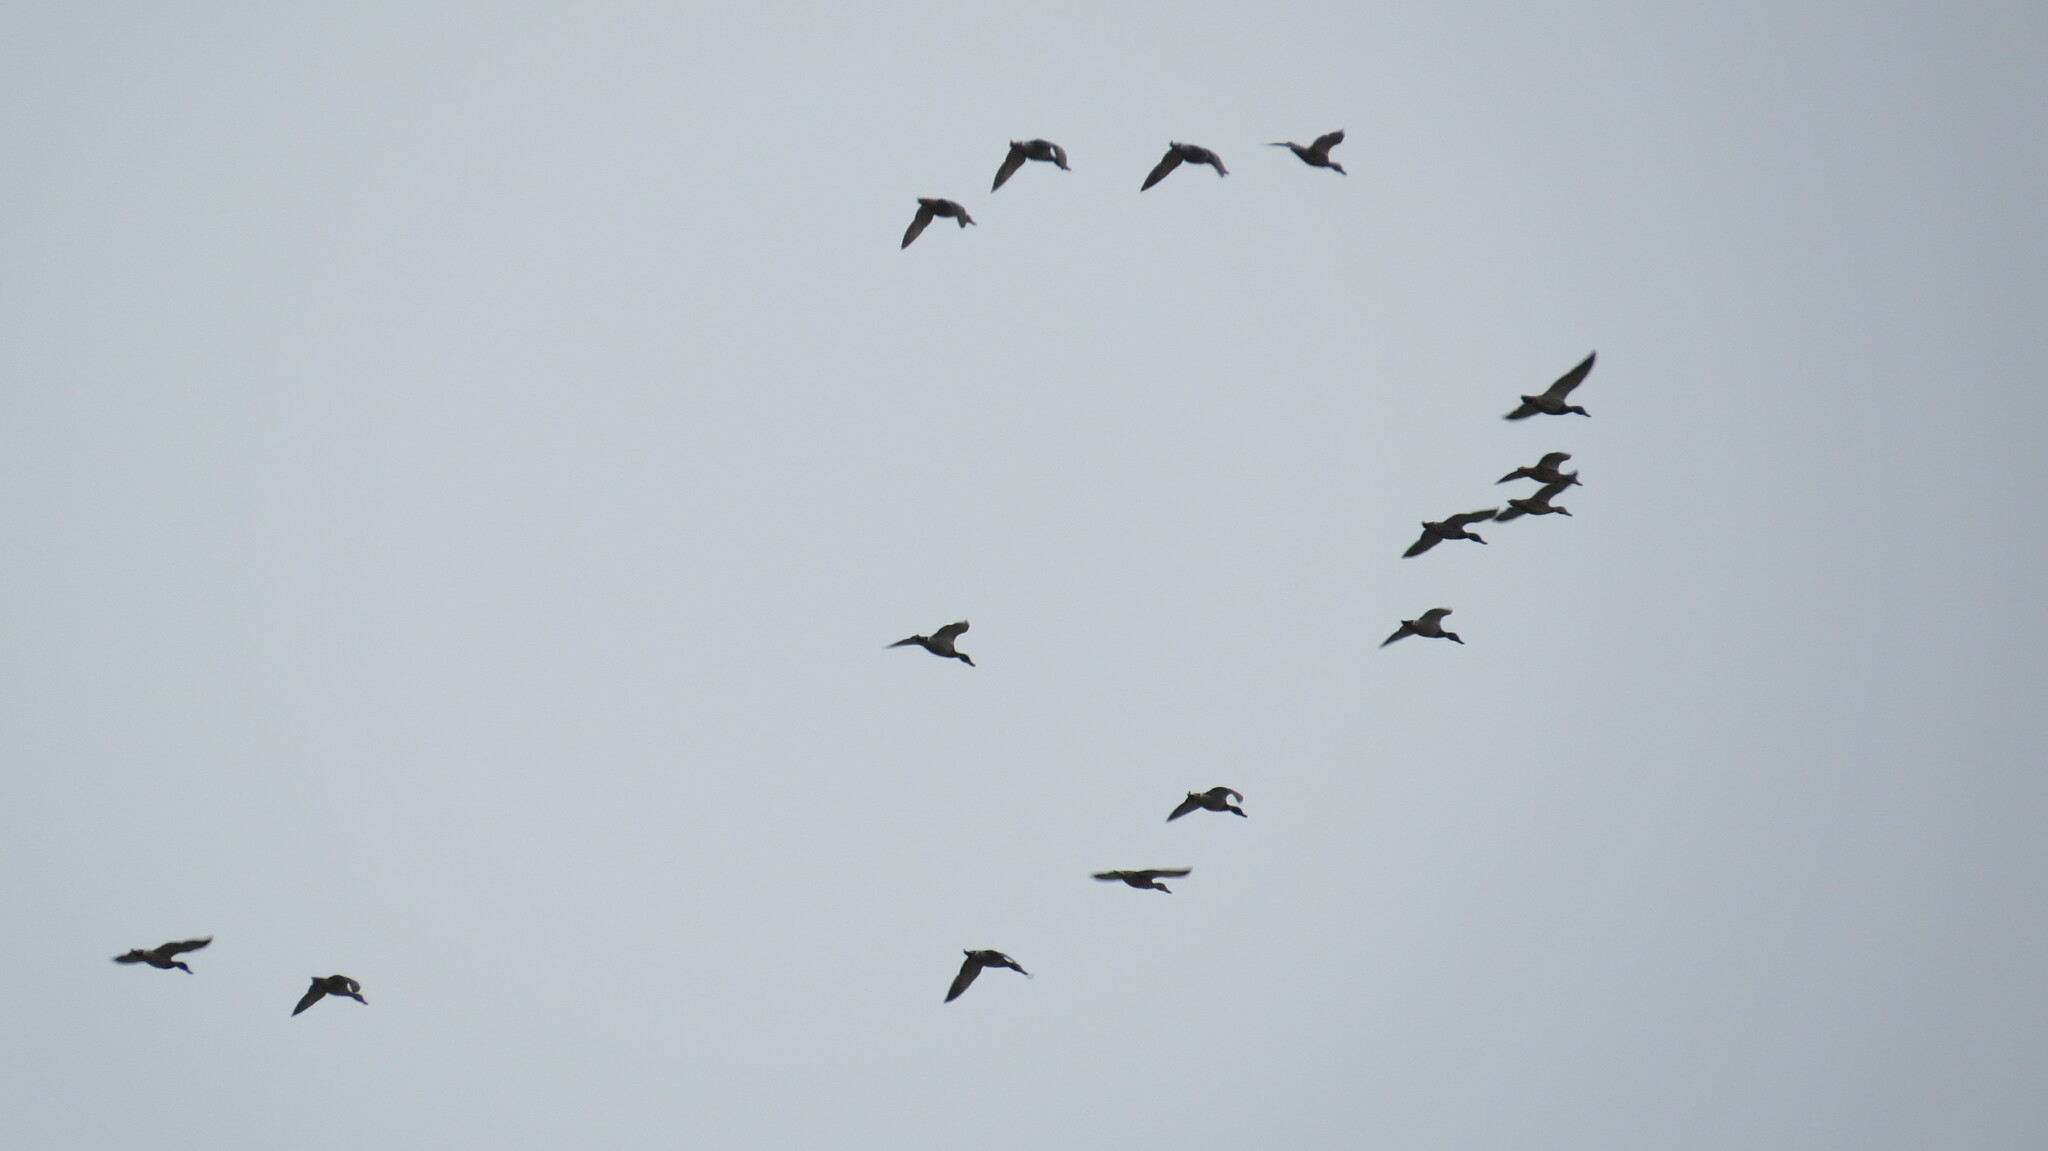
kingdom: Animalia
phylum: Chordata
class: Aves
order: Anseriformes
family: Anatidae
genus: Anas
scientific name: Anas platyrhynchos
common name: Mallard
